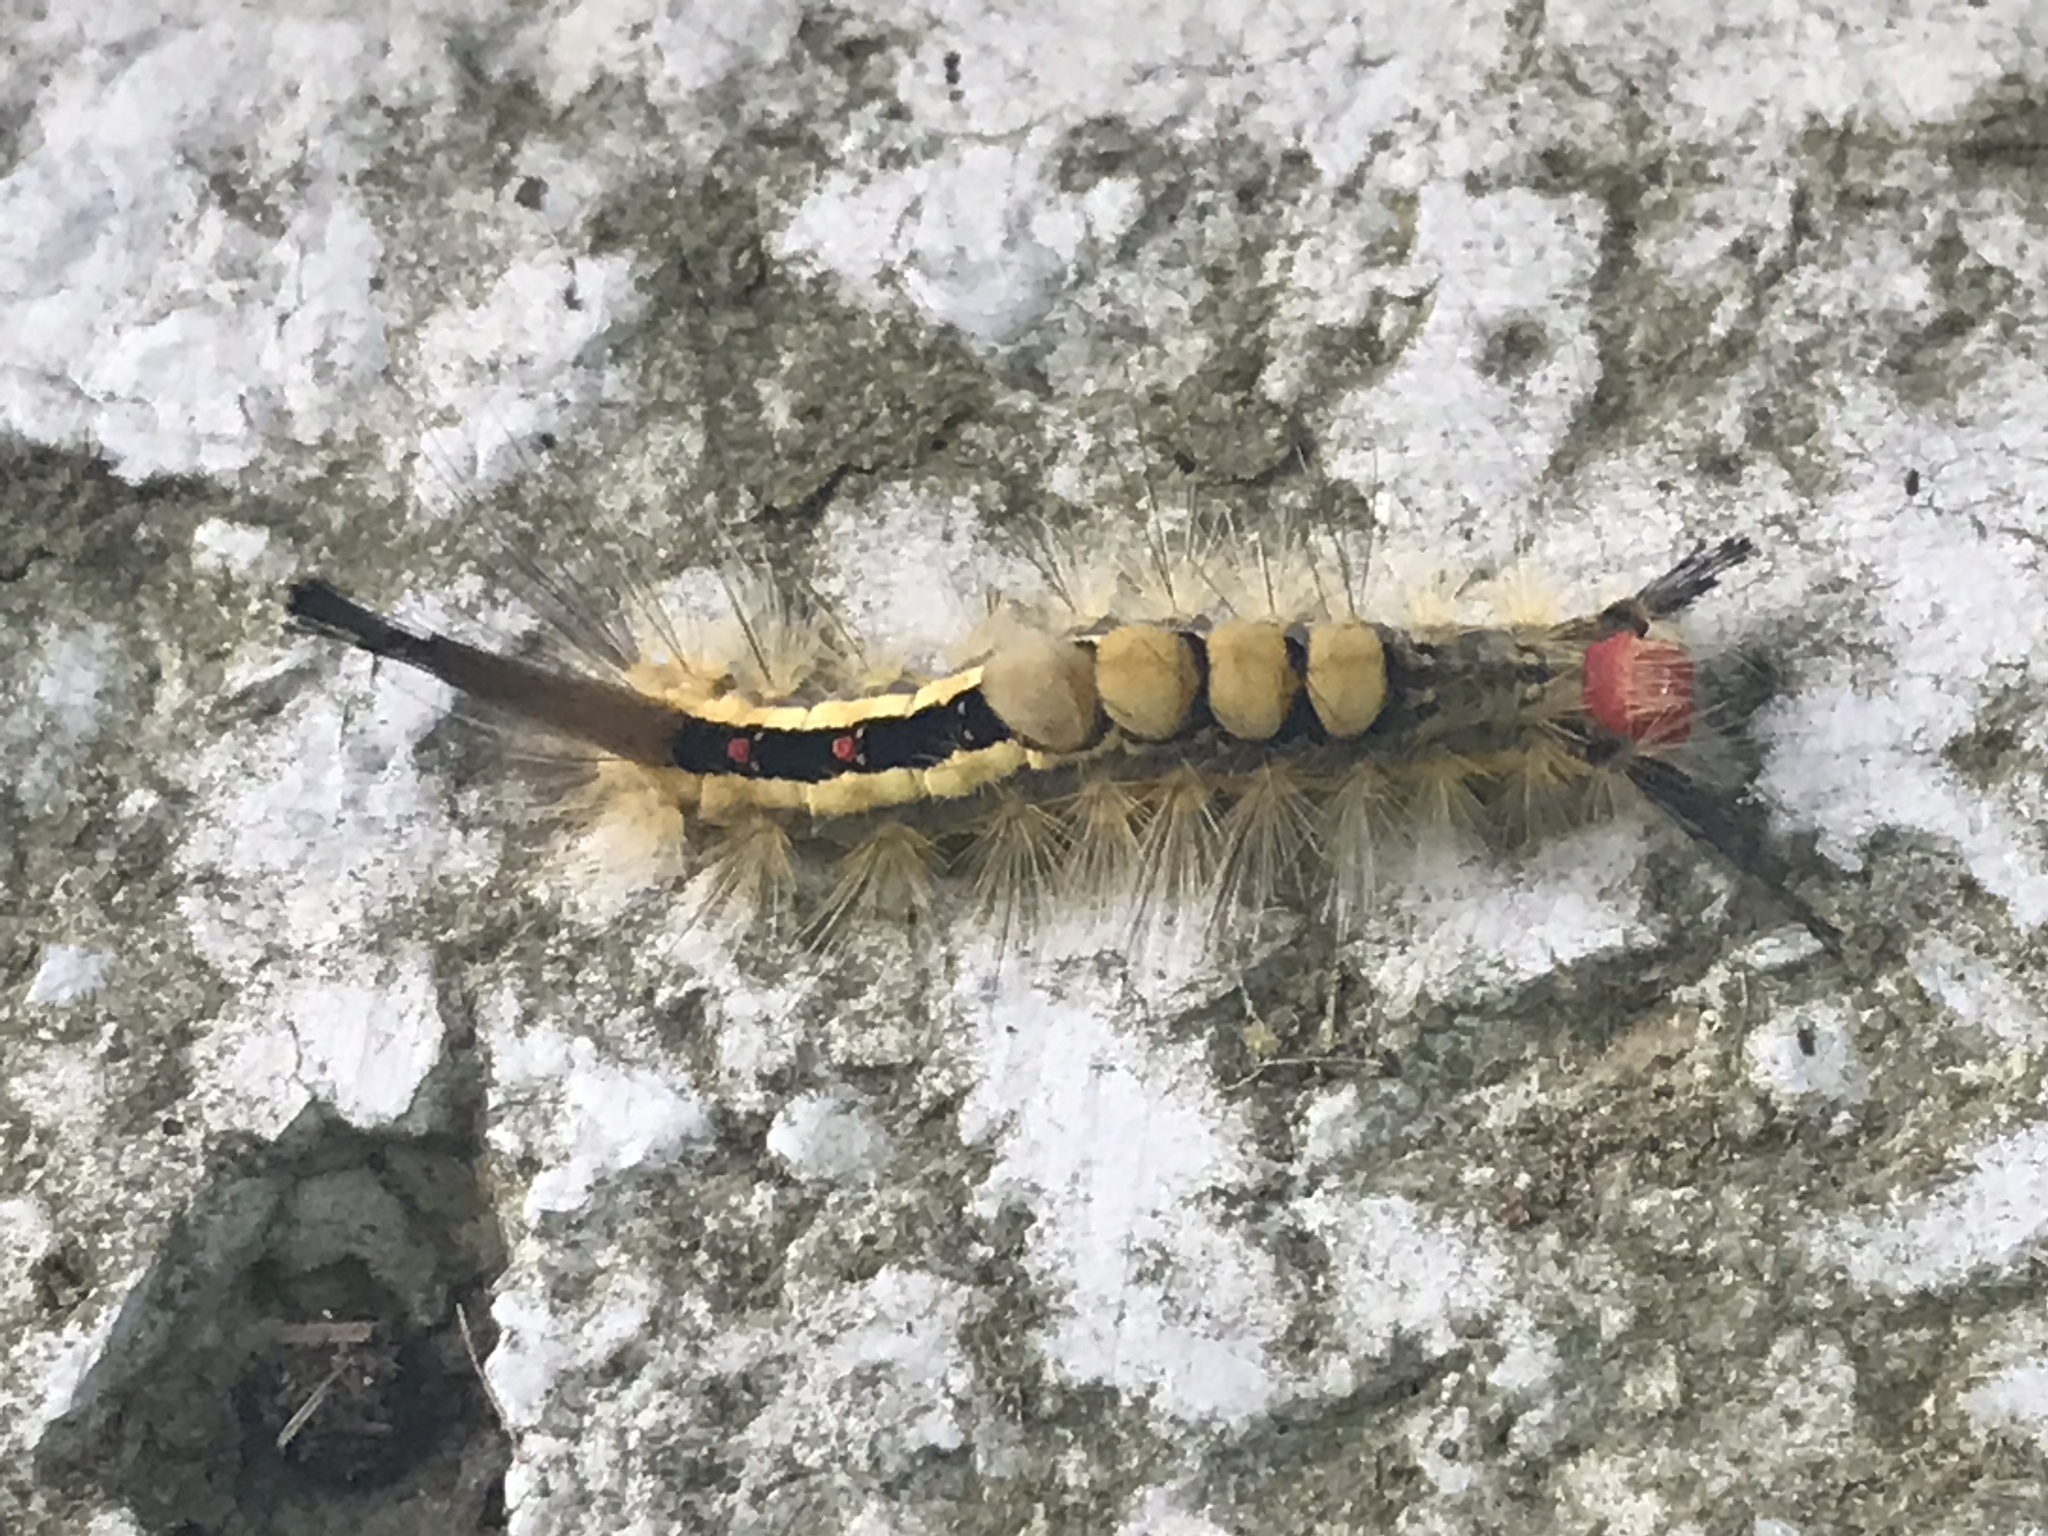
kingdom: Animalia
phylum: Arthropoda
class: Insecta
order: Lepidoptera
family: Erebidae
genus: Orgyia
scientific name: Orgyia leucostigma
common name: White-marked tussock moth
